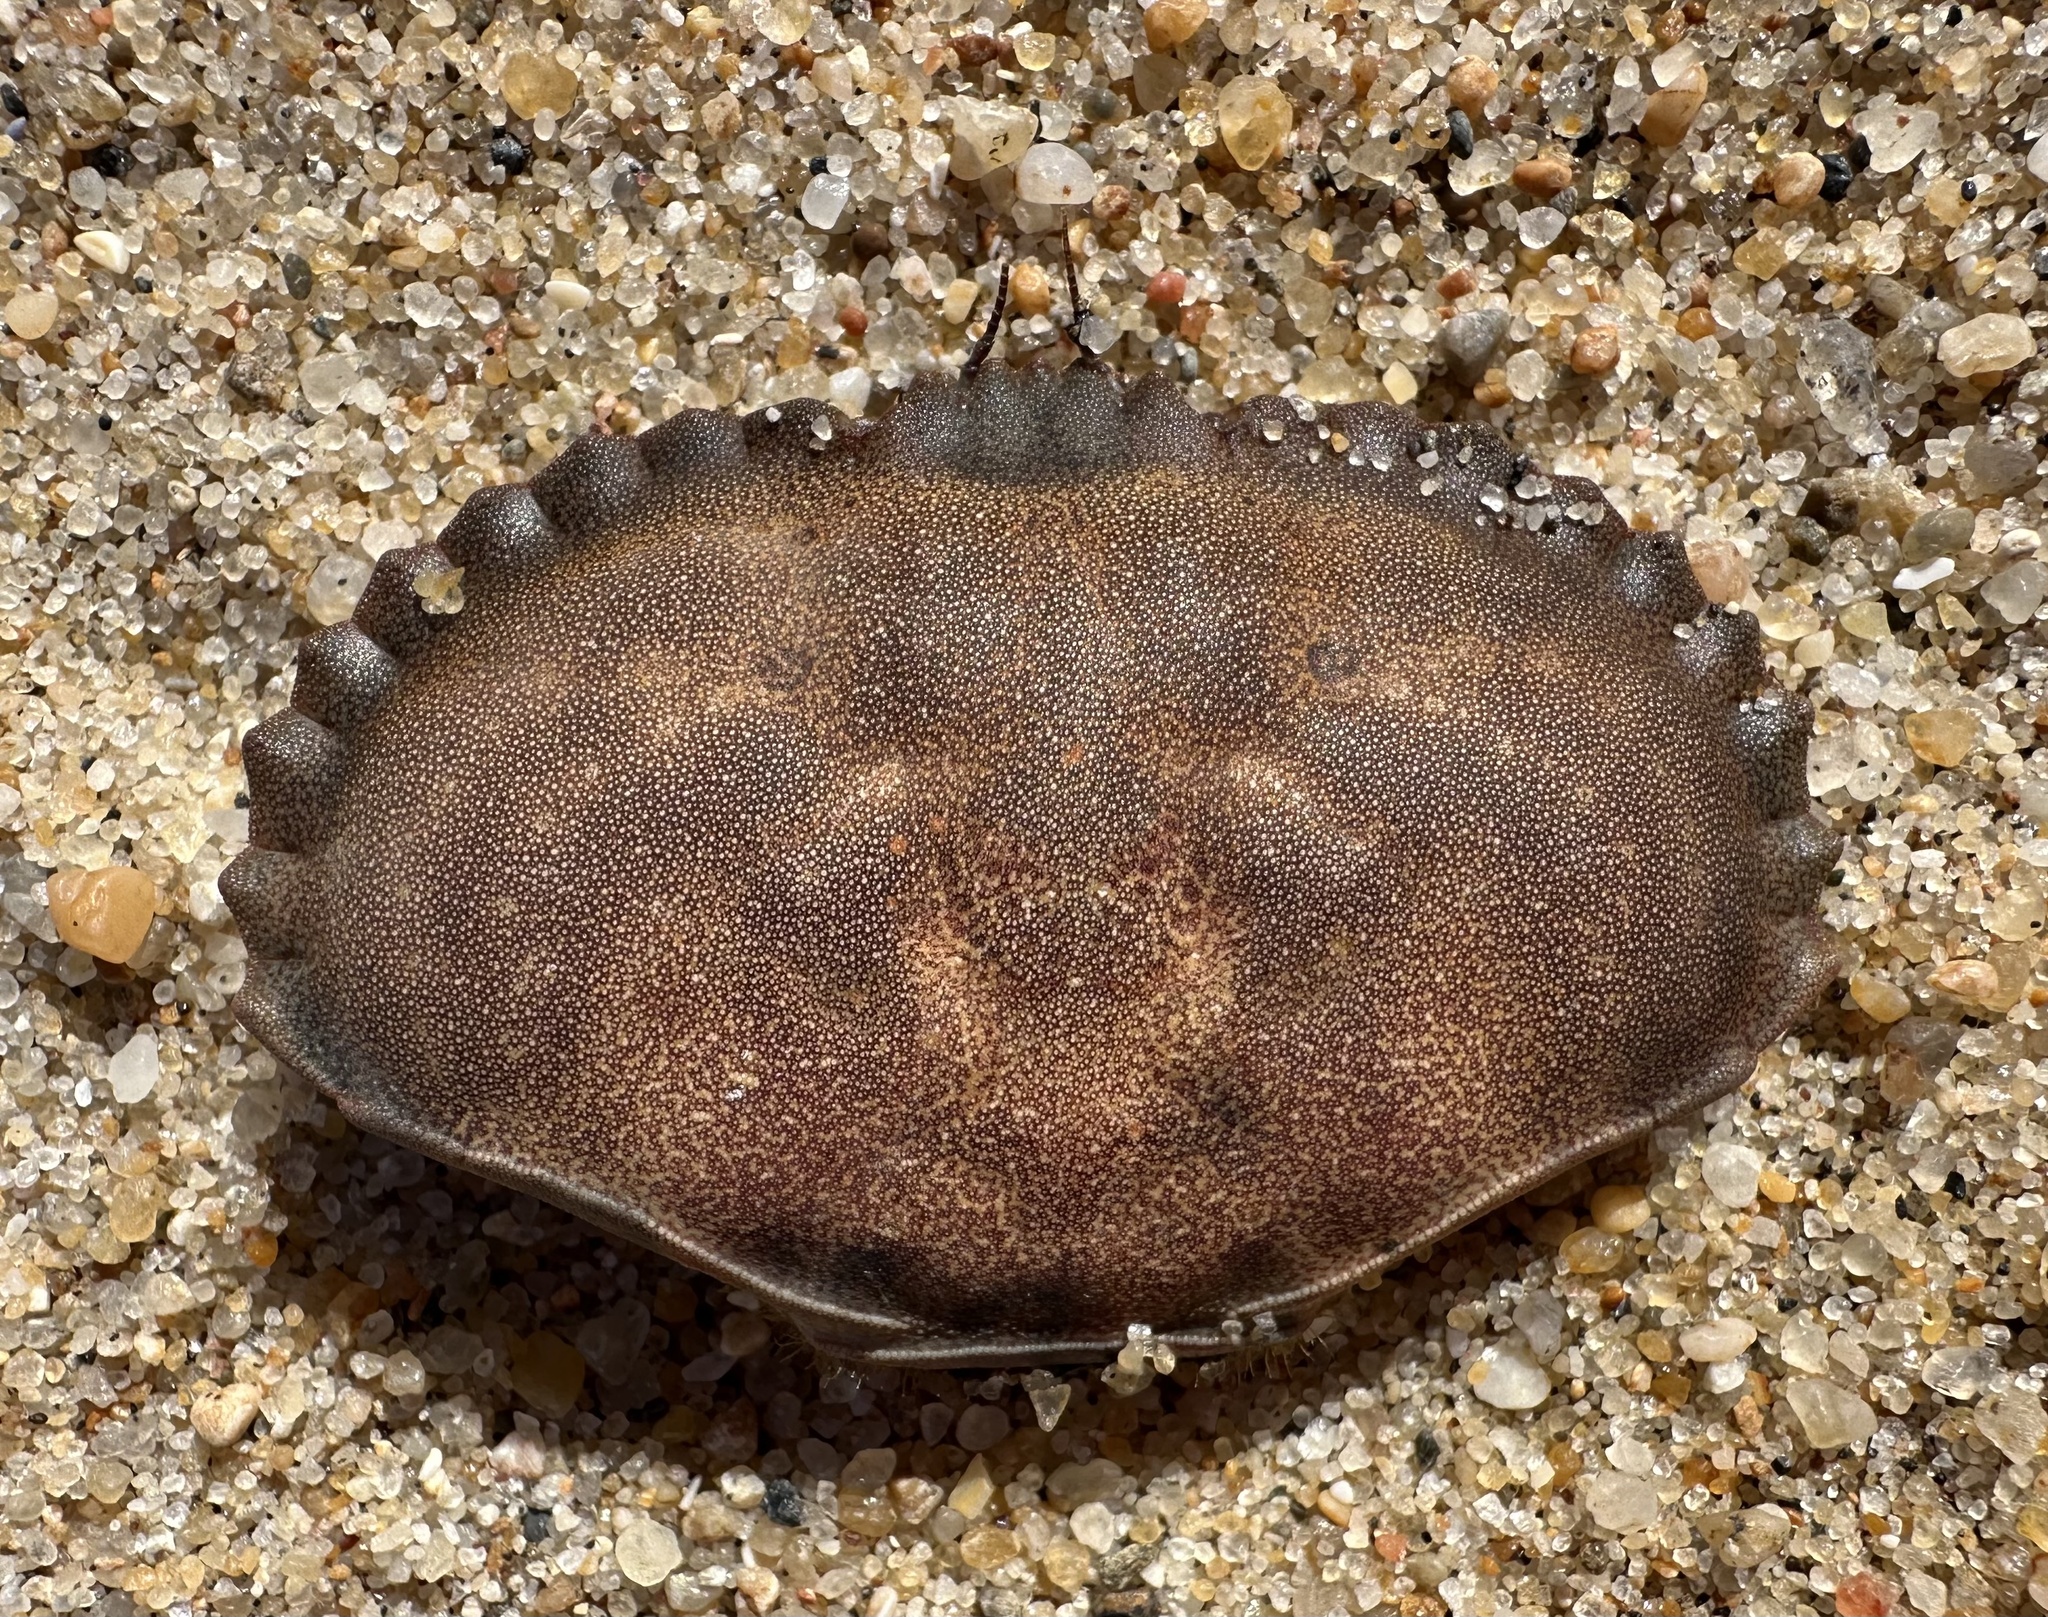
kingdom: Animalia
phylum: Arthropoda
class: Malacostraca
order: Decapoda
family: Cancridae
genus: Cancer
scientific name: Cancer pagurus
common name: Edible crab
